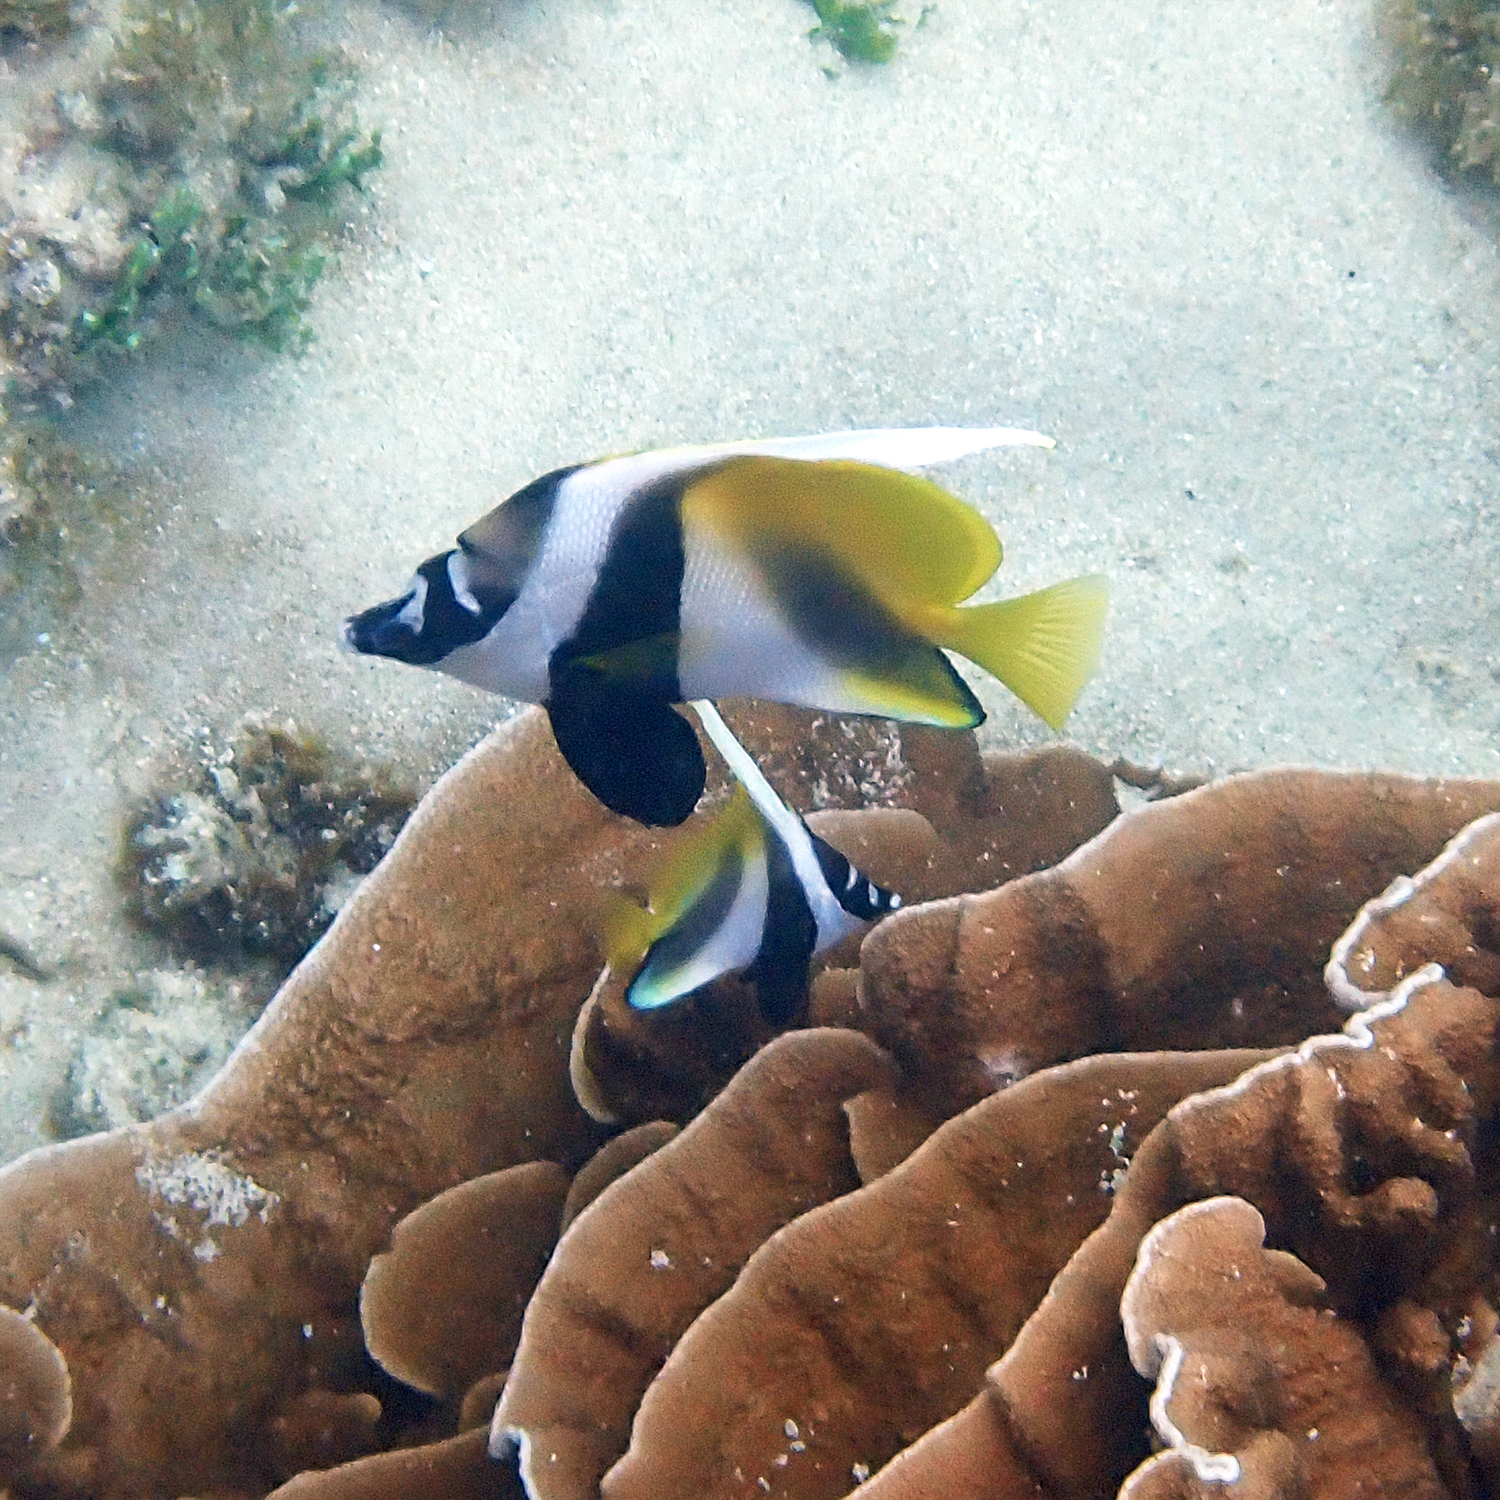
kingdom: Animalia
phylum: Chordata
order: Perciformes
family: Chaetodontidae
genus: Heniochus
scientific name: Heniochus monoceros
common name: Masked bannerfish
